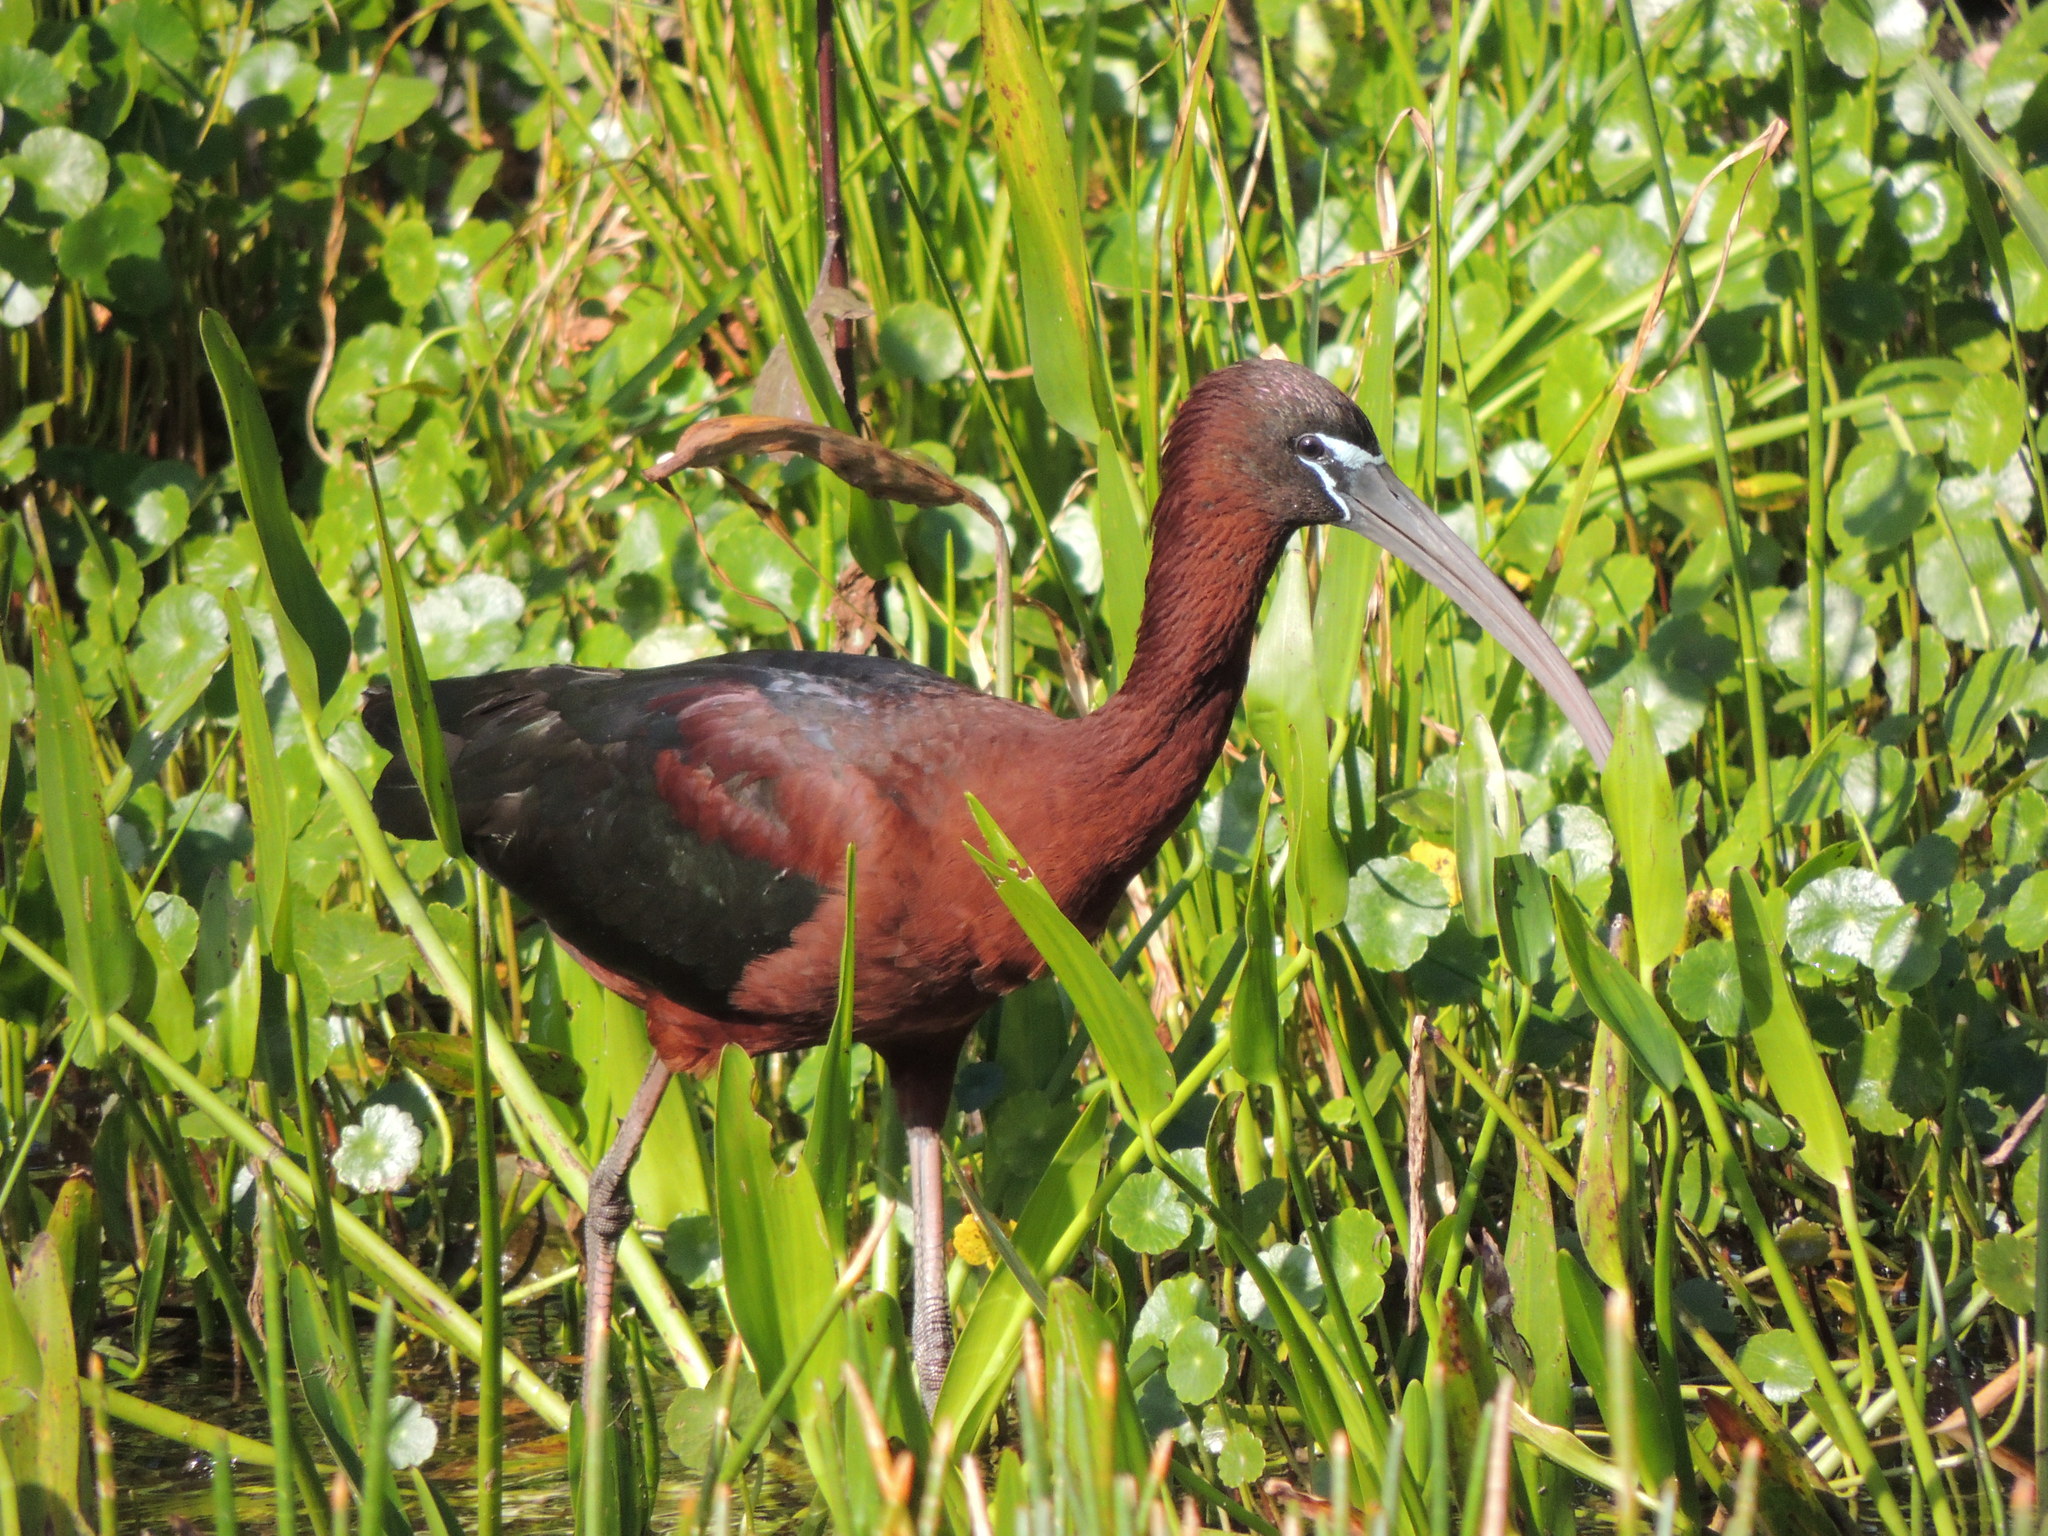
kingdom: Animalia
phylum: Chordata
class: Aves
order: Pelecaniformes
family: Threskiornithidae
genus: Plegadis
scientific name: Plegadis falcinellus
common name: Glossy ibis
